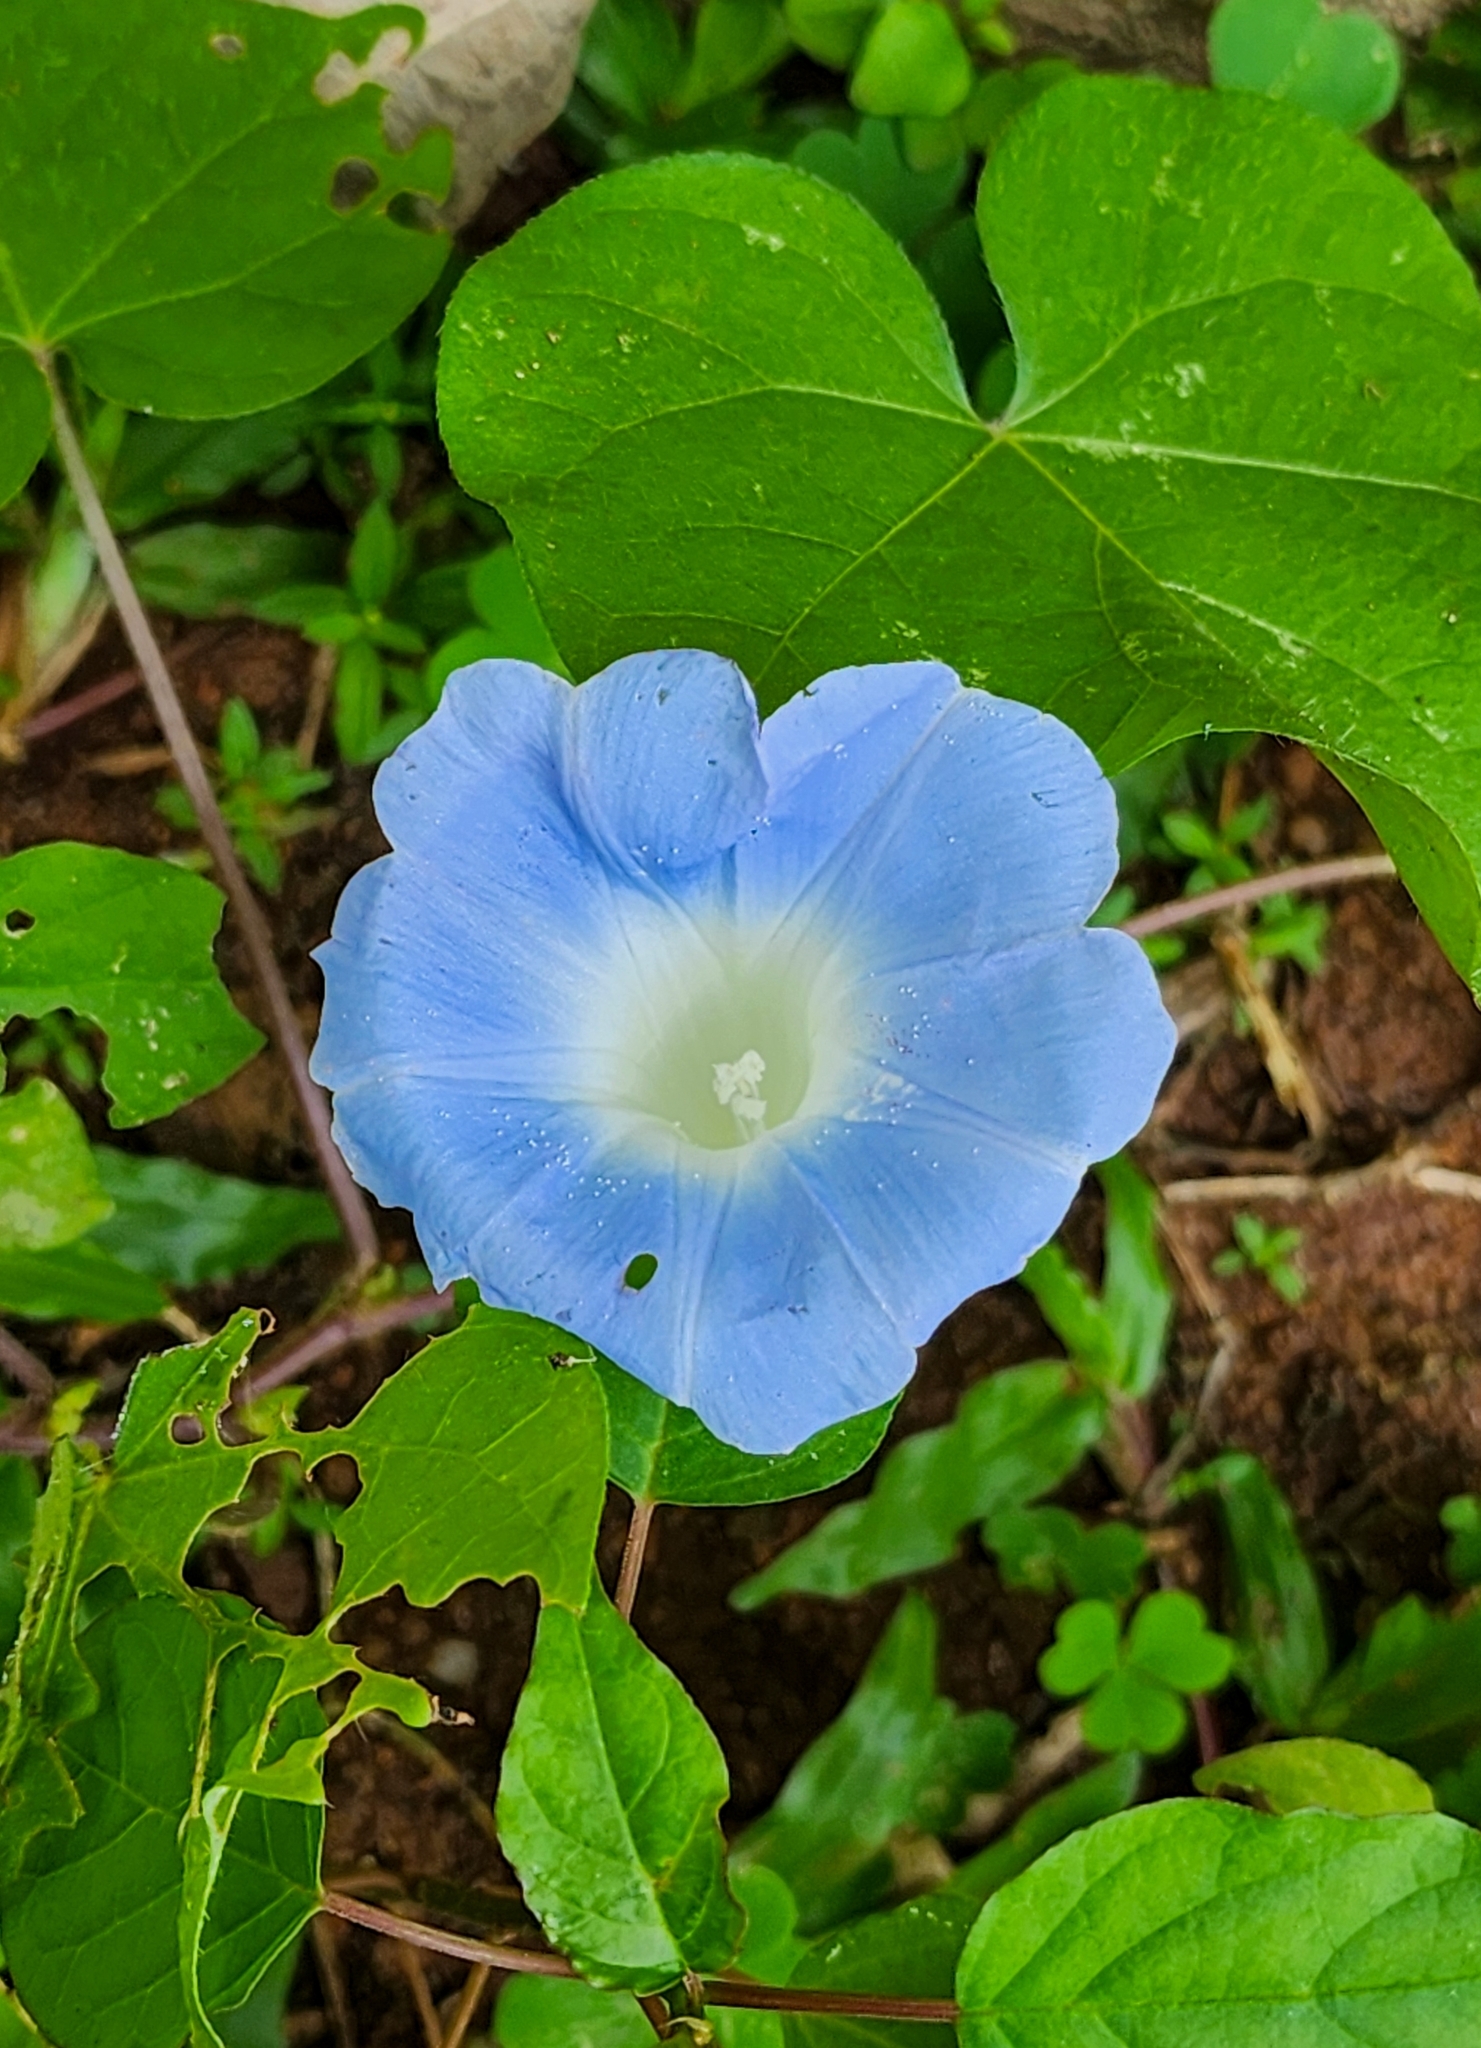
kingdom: Plantae
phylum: Tracheophyta
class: Magnoliopsida
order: Solanales
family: Convolvulaceae
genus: Ipomoea
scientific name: Ipomoea nil
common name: Japanese morning-glory
